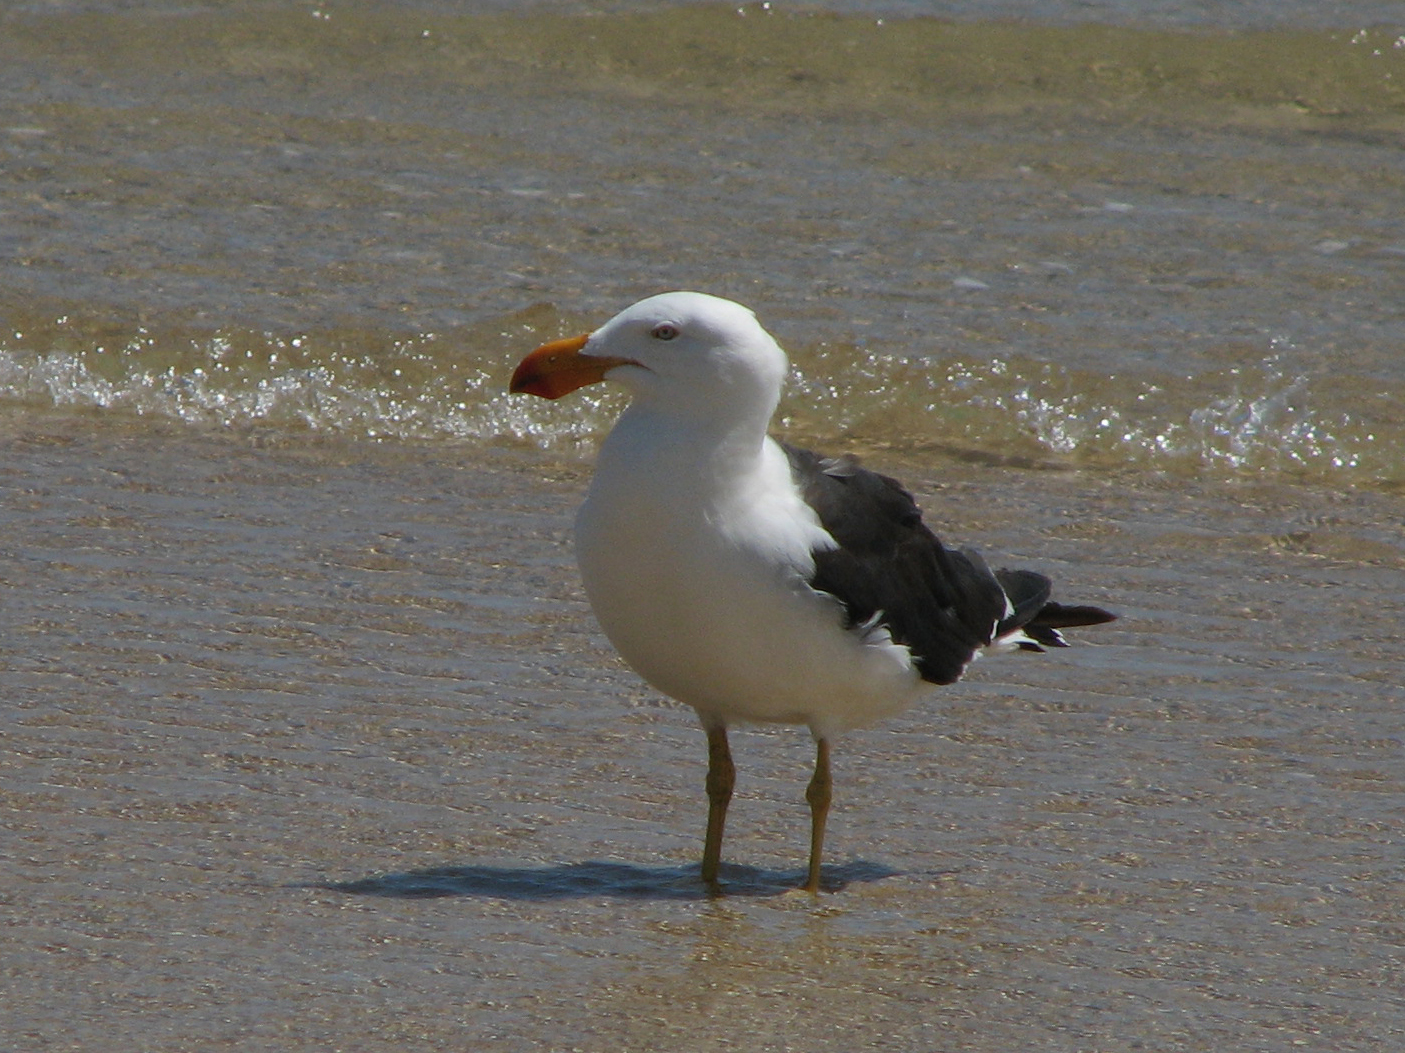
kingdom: Animalia
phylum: Chordata
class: Aves
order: Charadriiformes
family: Laridae
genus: Larus
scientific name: Larus pacificus
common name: Pacific gull
